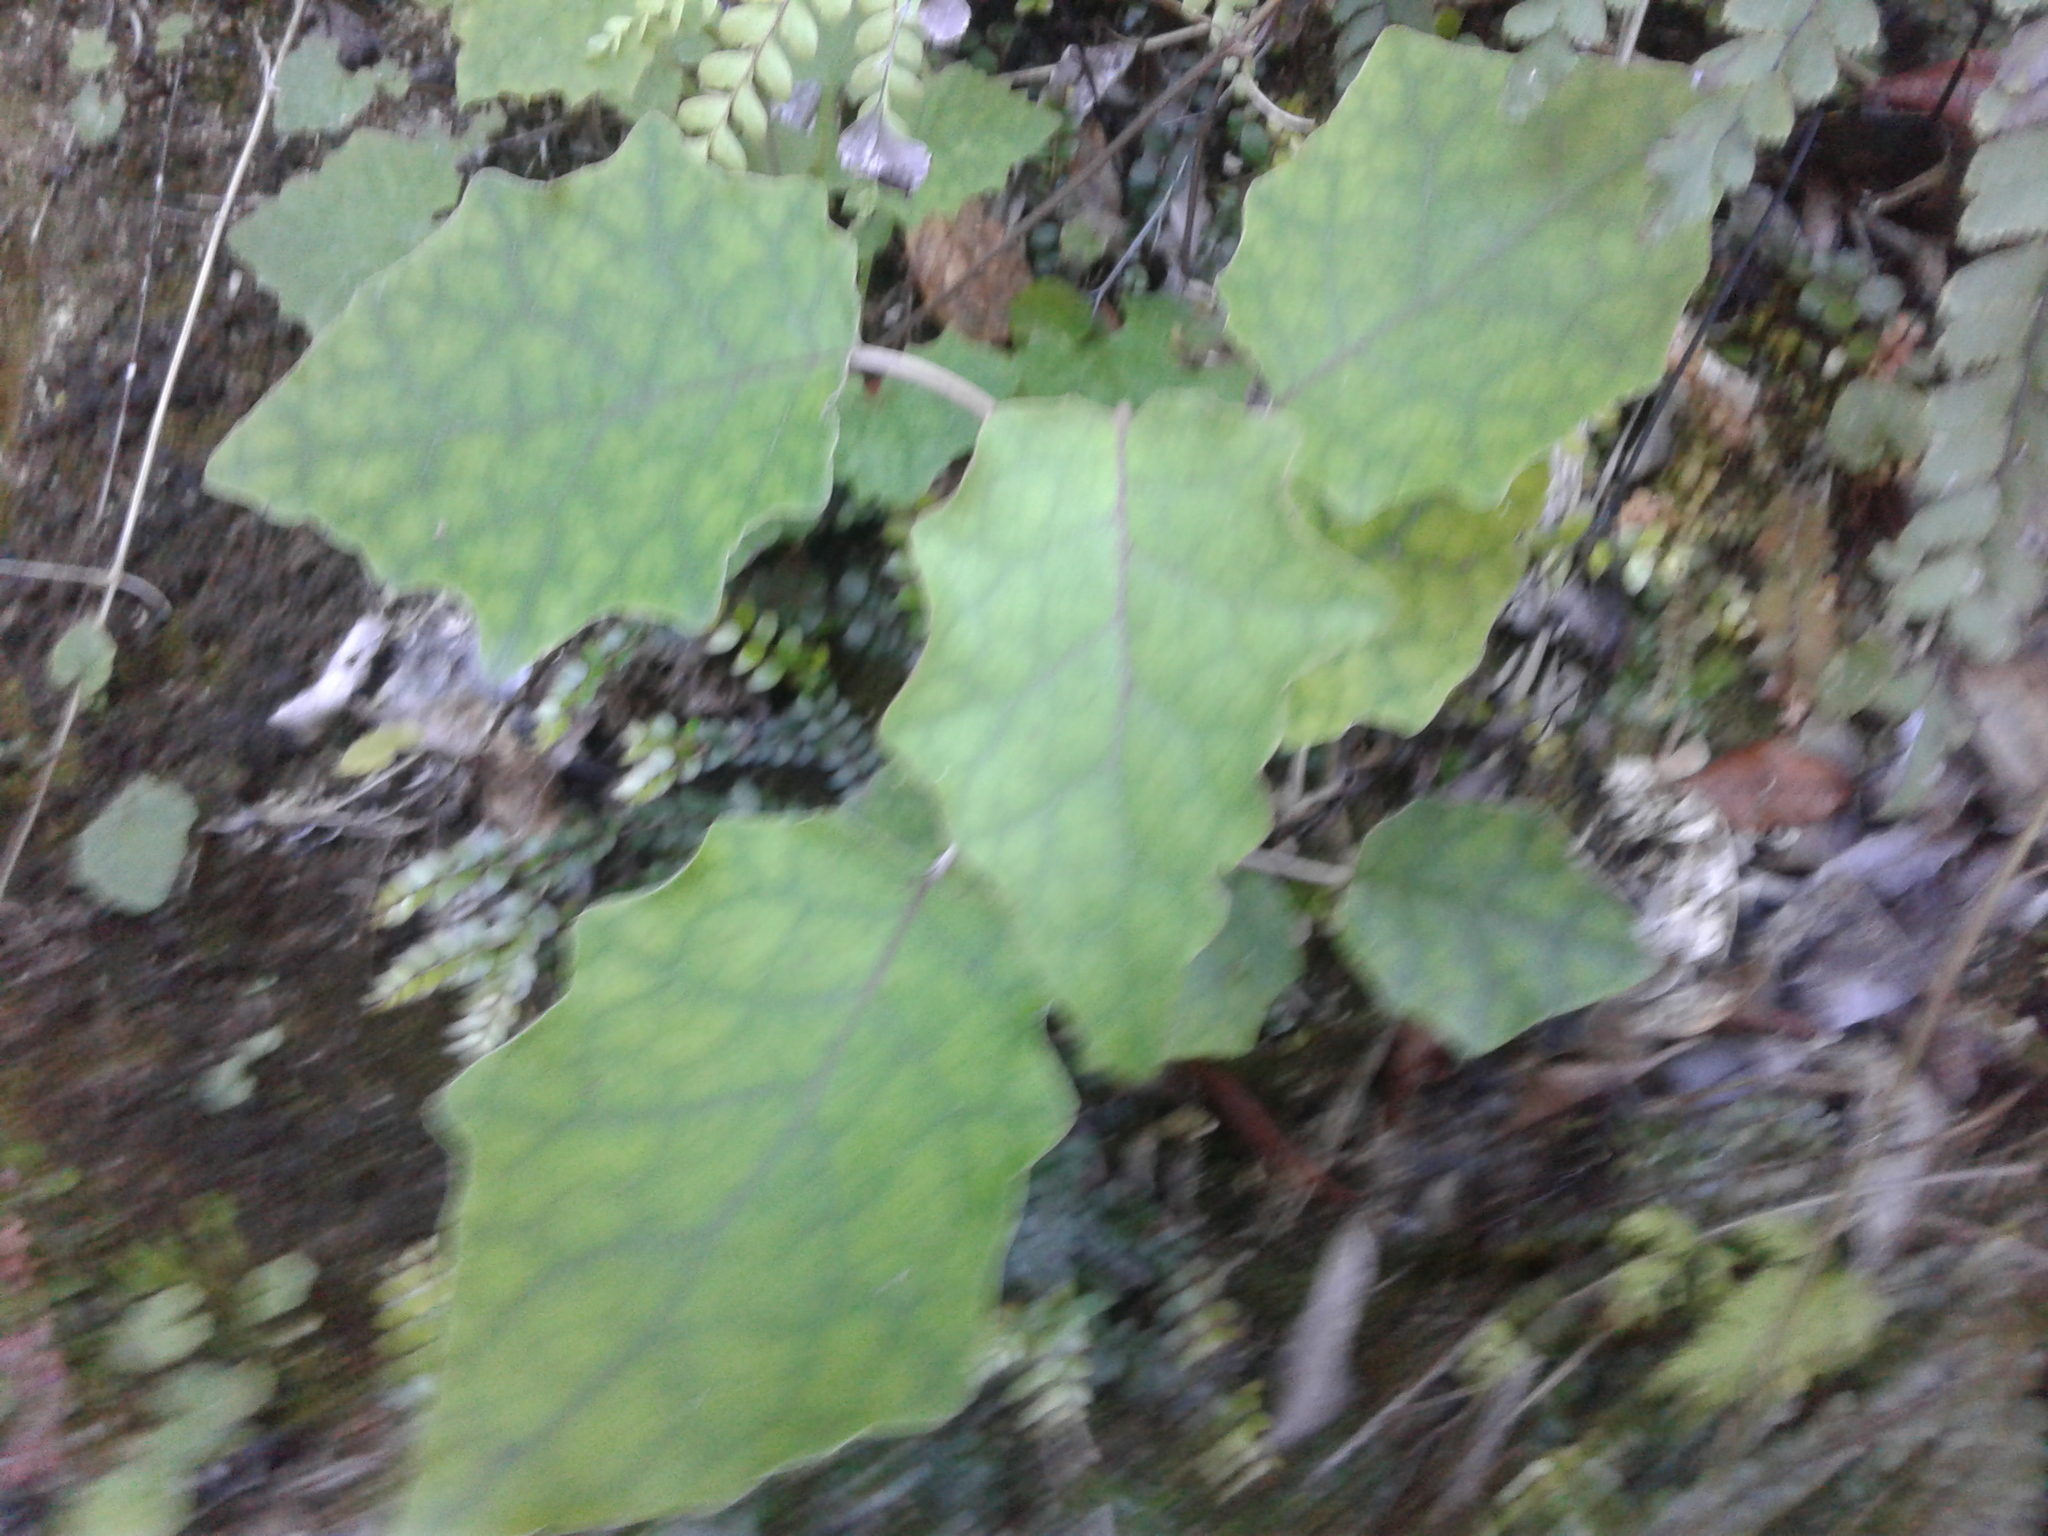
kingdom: Plantae
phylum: Tracheophyta
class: Magnoliopsida
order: Asterales
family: Asteraceae
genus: Brachyglottis
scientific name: Brachyglottis repanda
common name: Hedge ragwort
